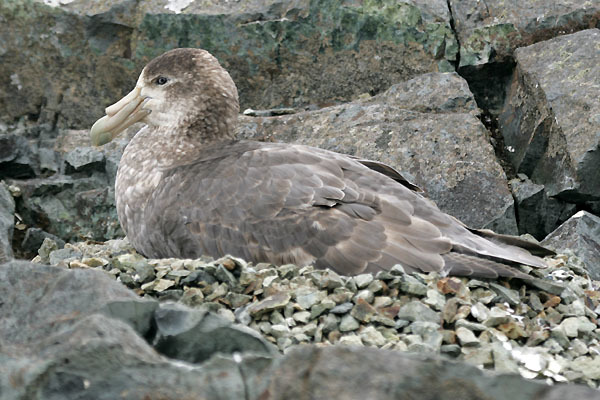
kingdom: Animalia
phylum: Chordata
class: Aves
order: Procellariiformes
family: Procellariidae
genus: Macronectes
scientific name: Macronectes giganteus
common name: Southern giant petrel
